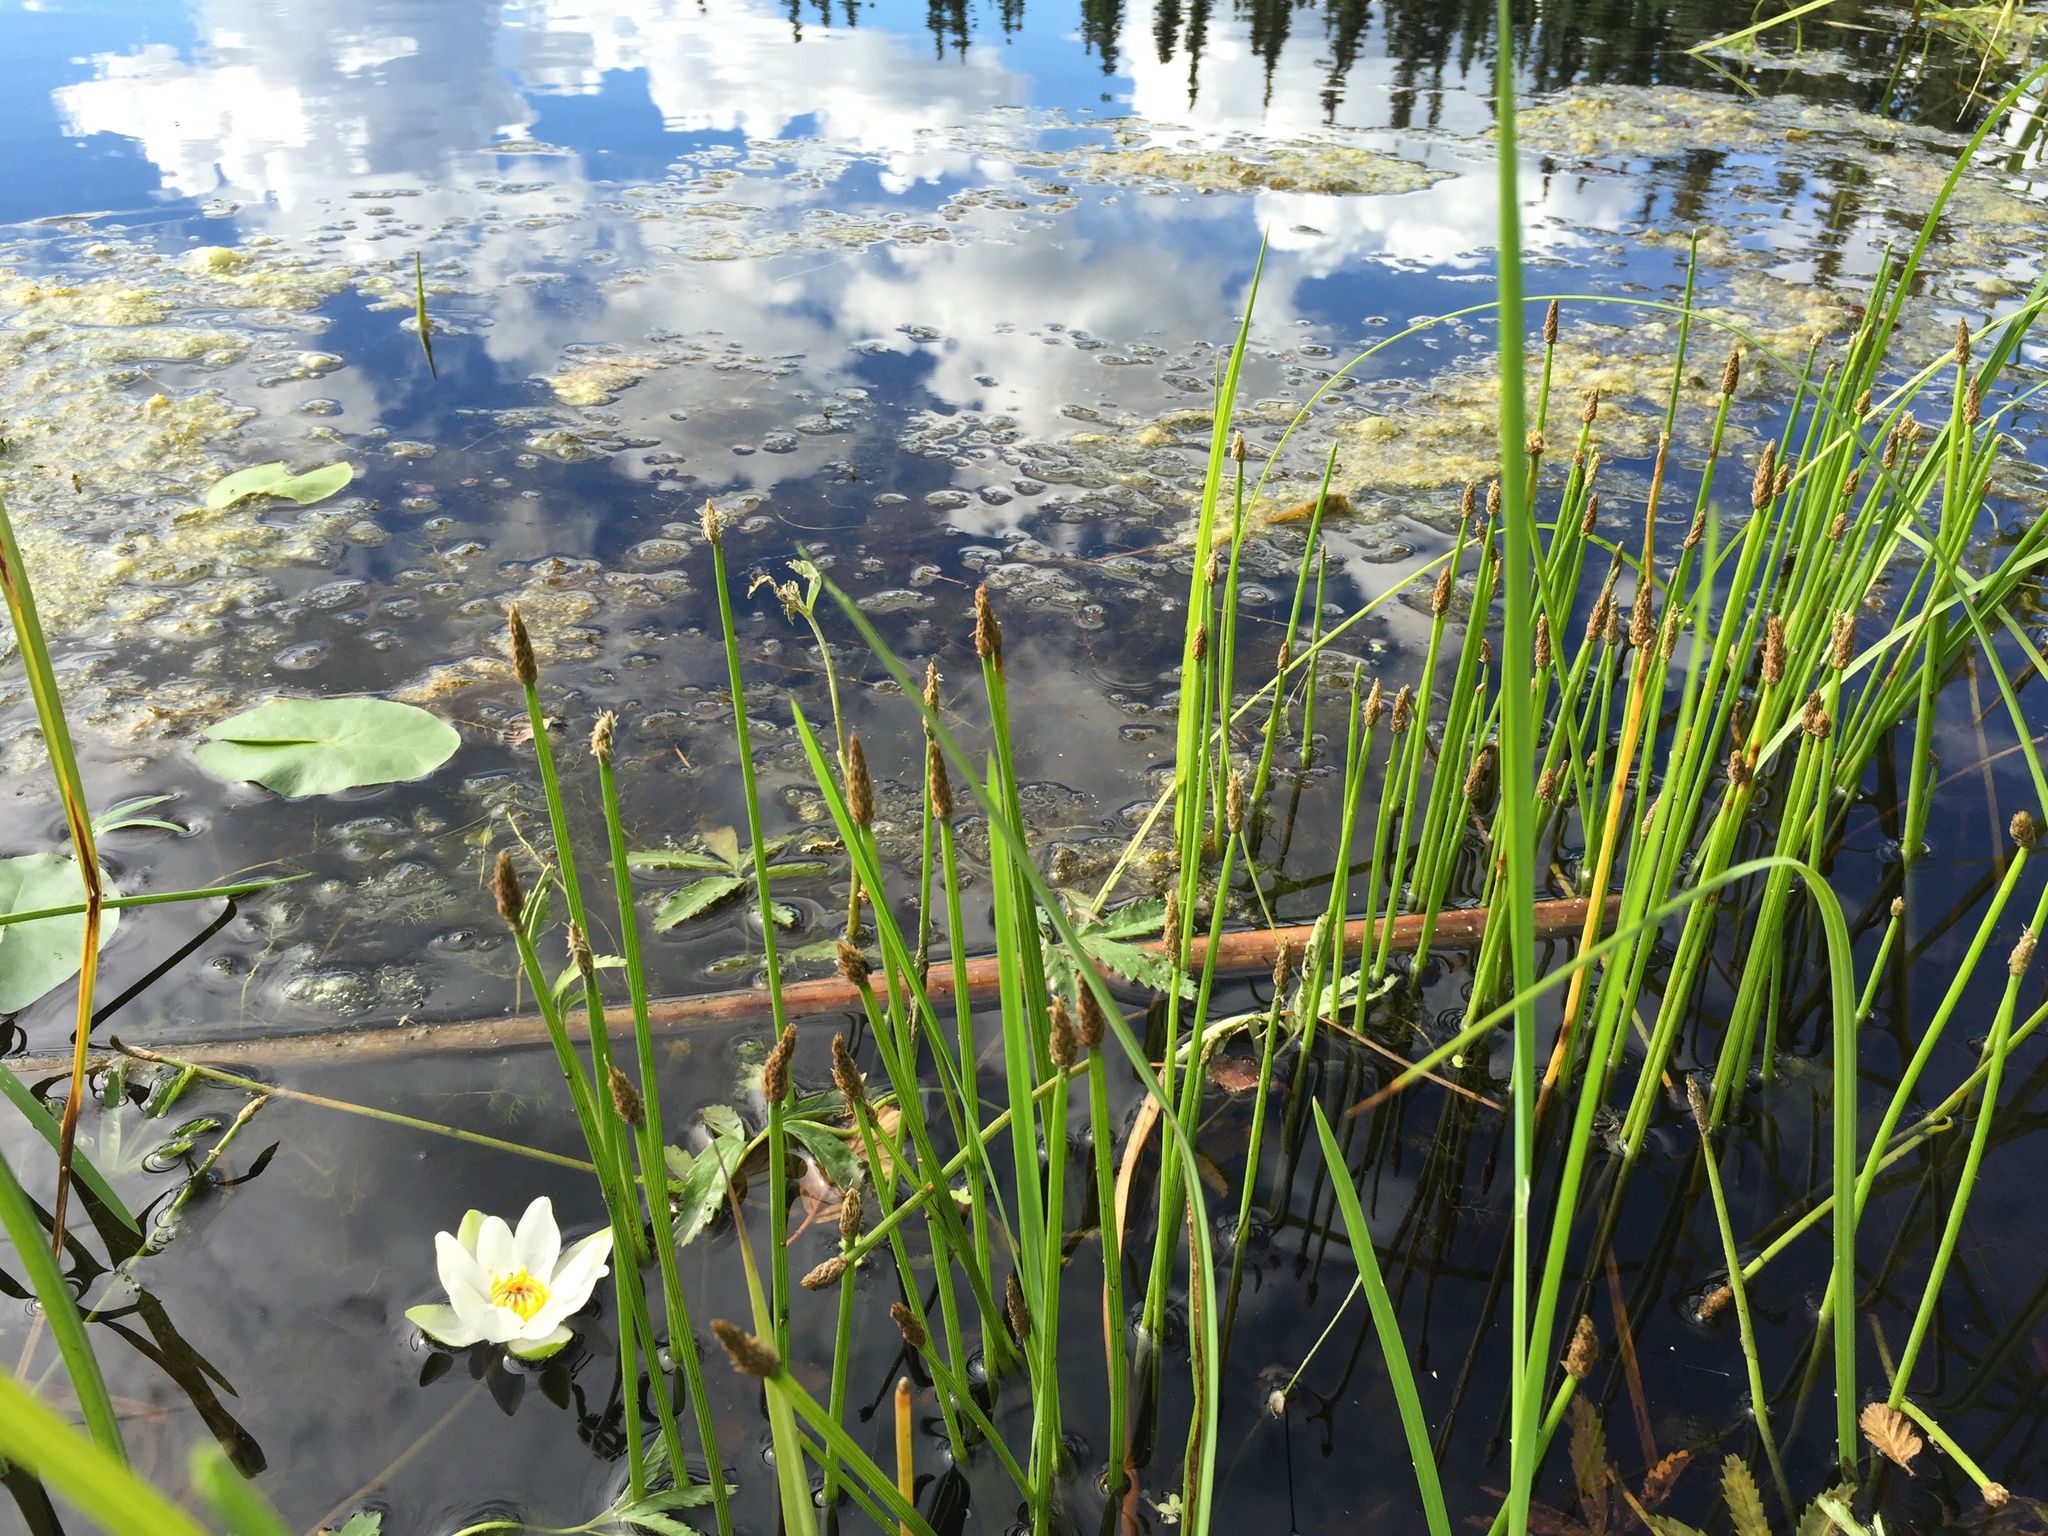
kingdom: Plantae
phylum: Tracheophyta
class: Liliopsida
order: Poales
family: Cyperaceae
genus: Eleocharis
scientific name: Eleocharis palustris
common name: Common spike-rush
